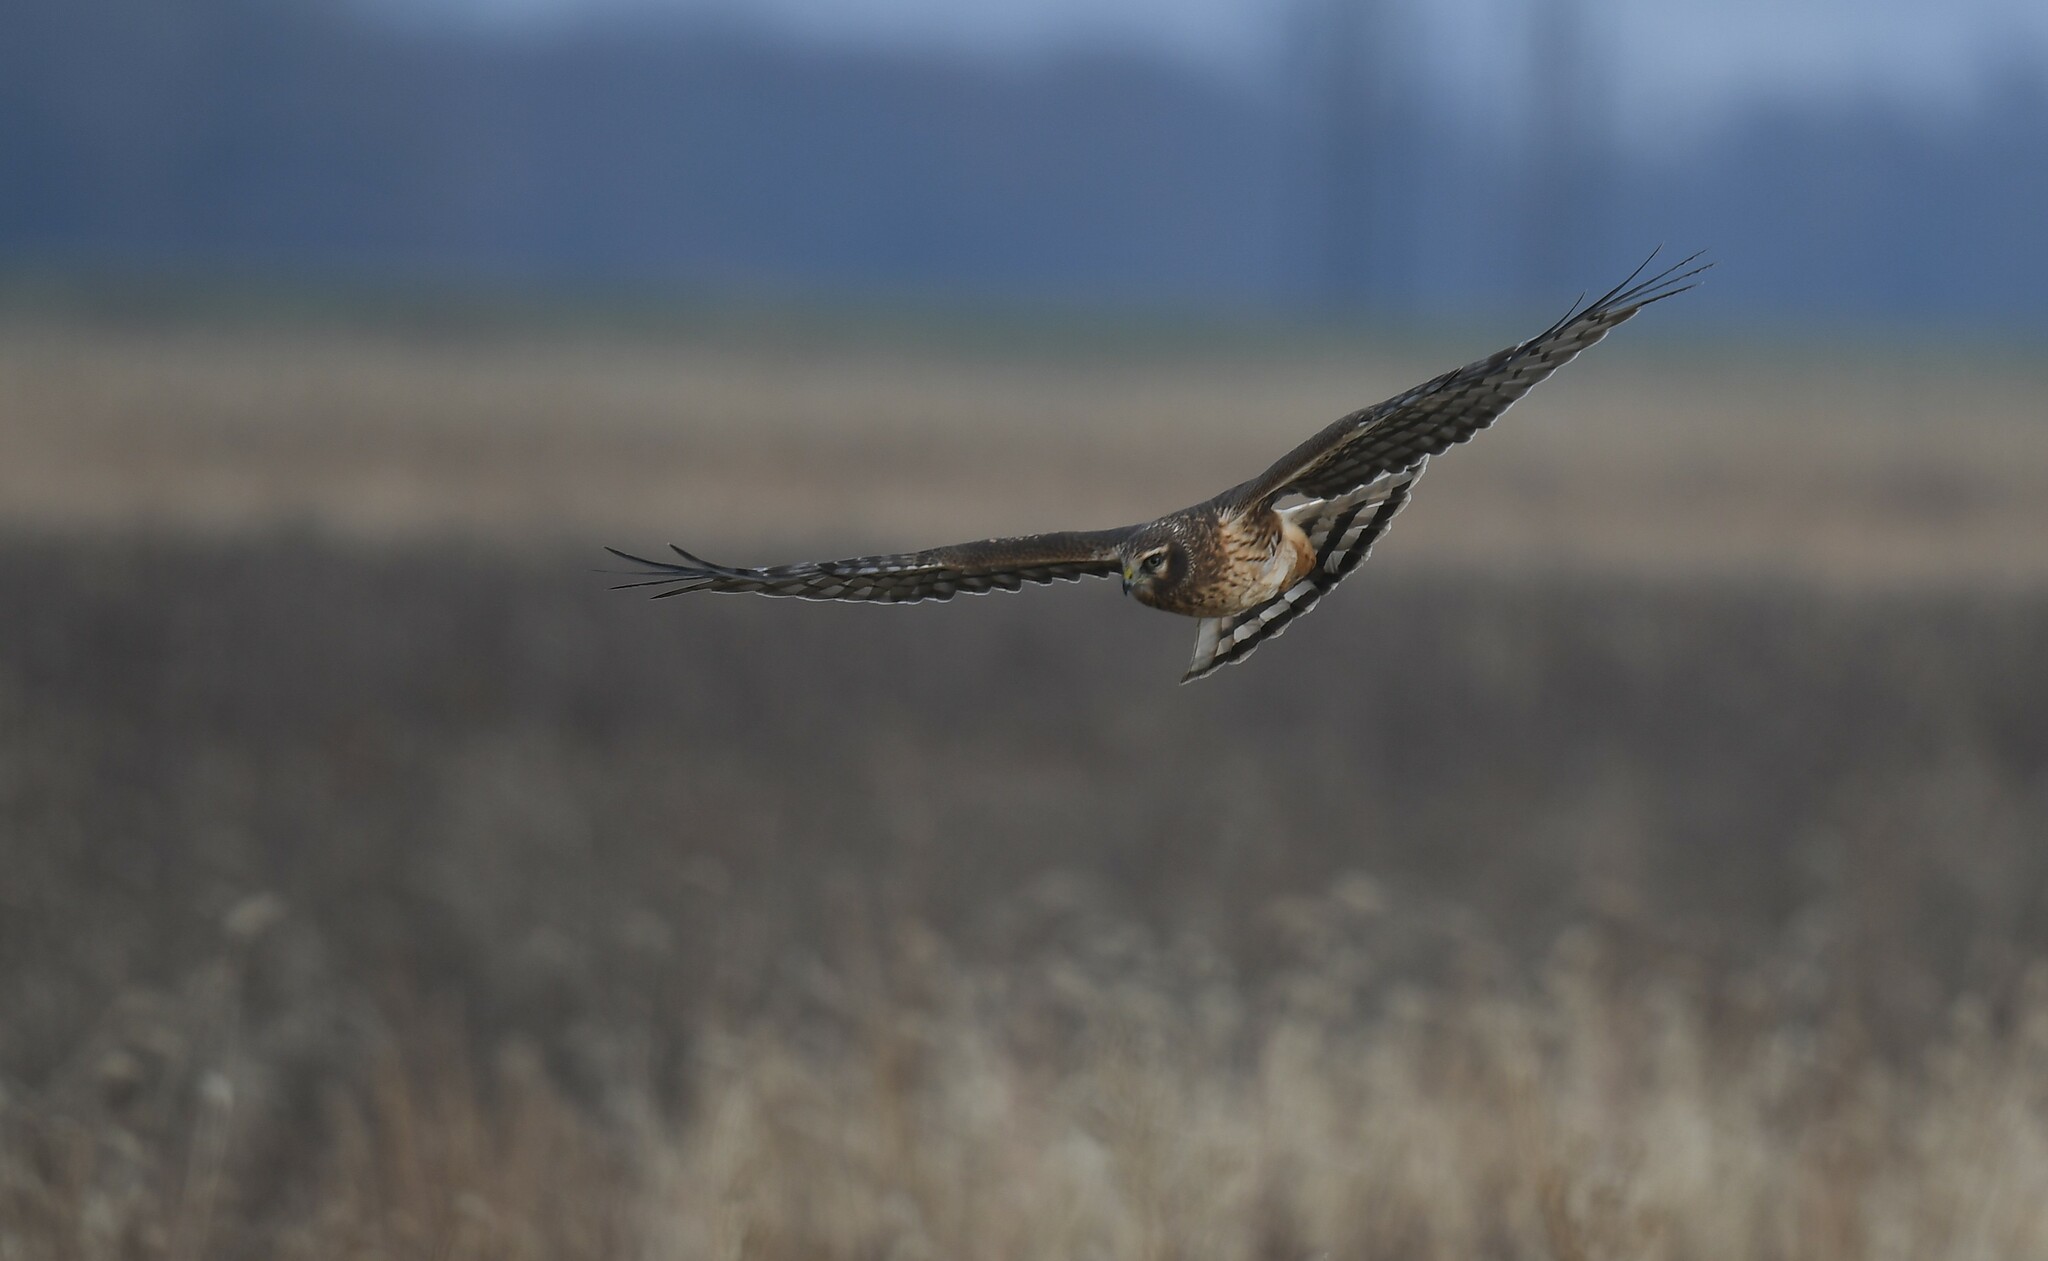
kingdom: Animalia
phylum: Chordata
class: Aves
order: Accipitriformes
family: Accipitridae
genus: Circus
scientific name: Circus cyaneus
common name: Hen harrier
